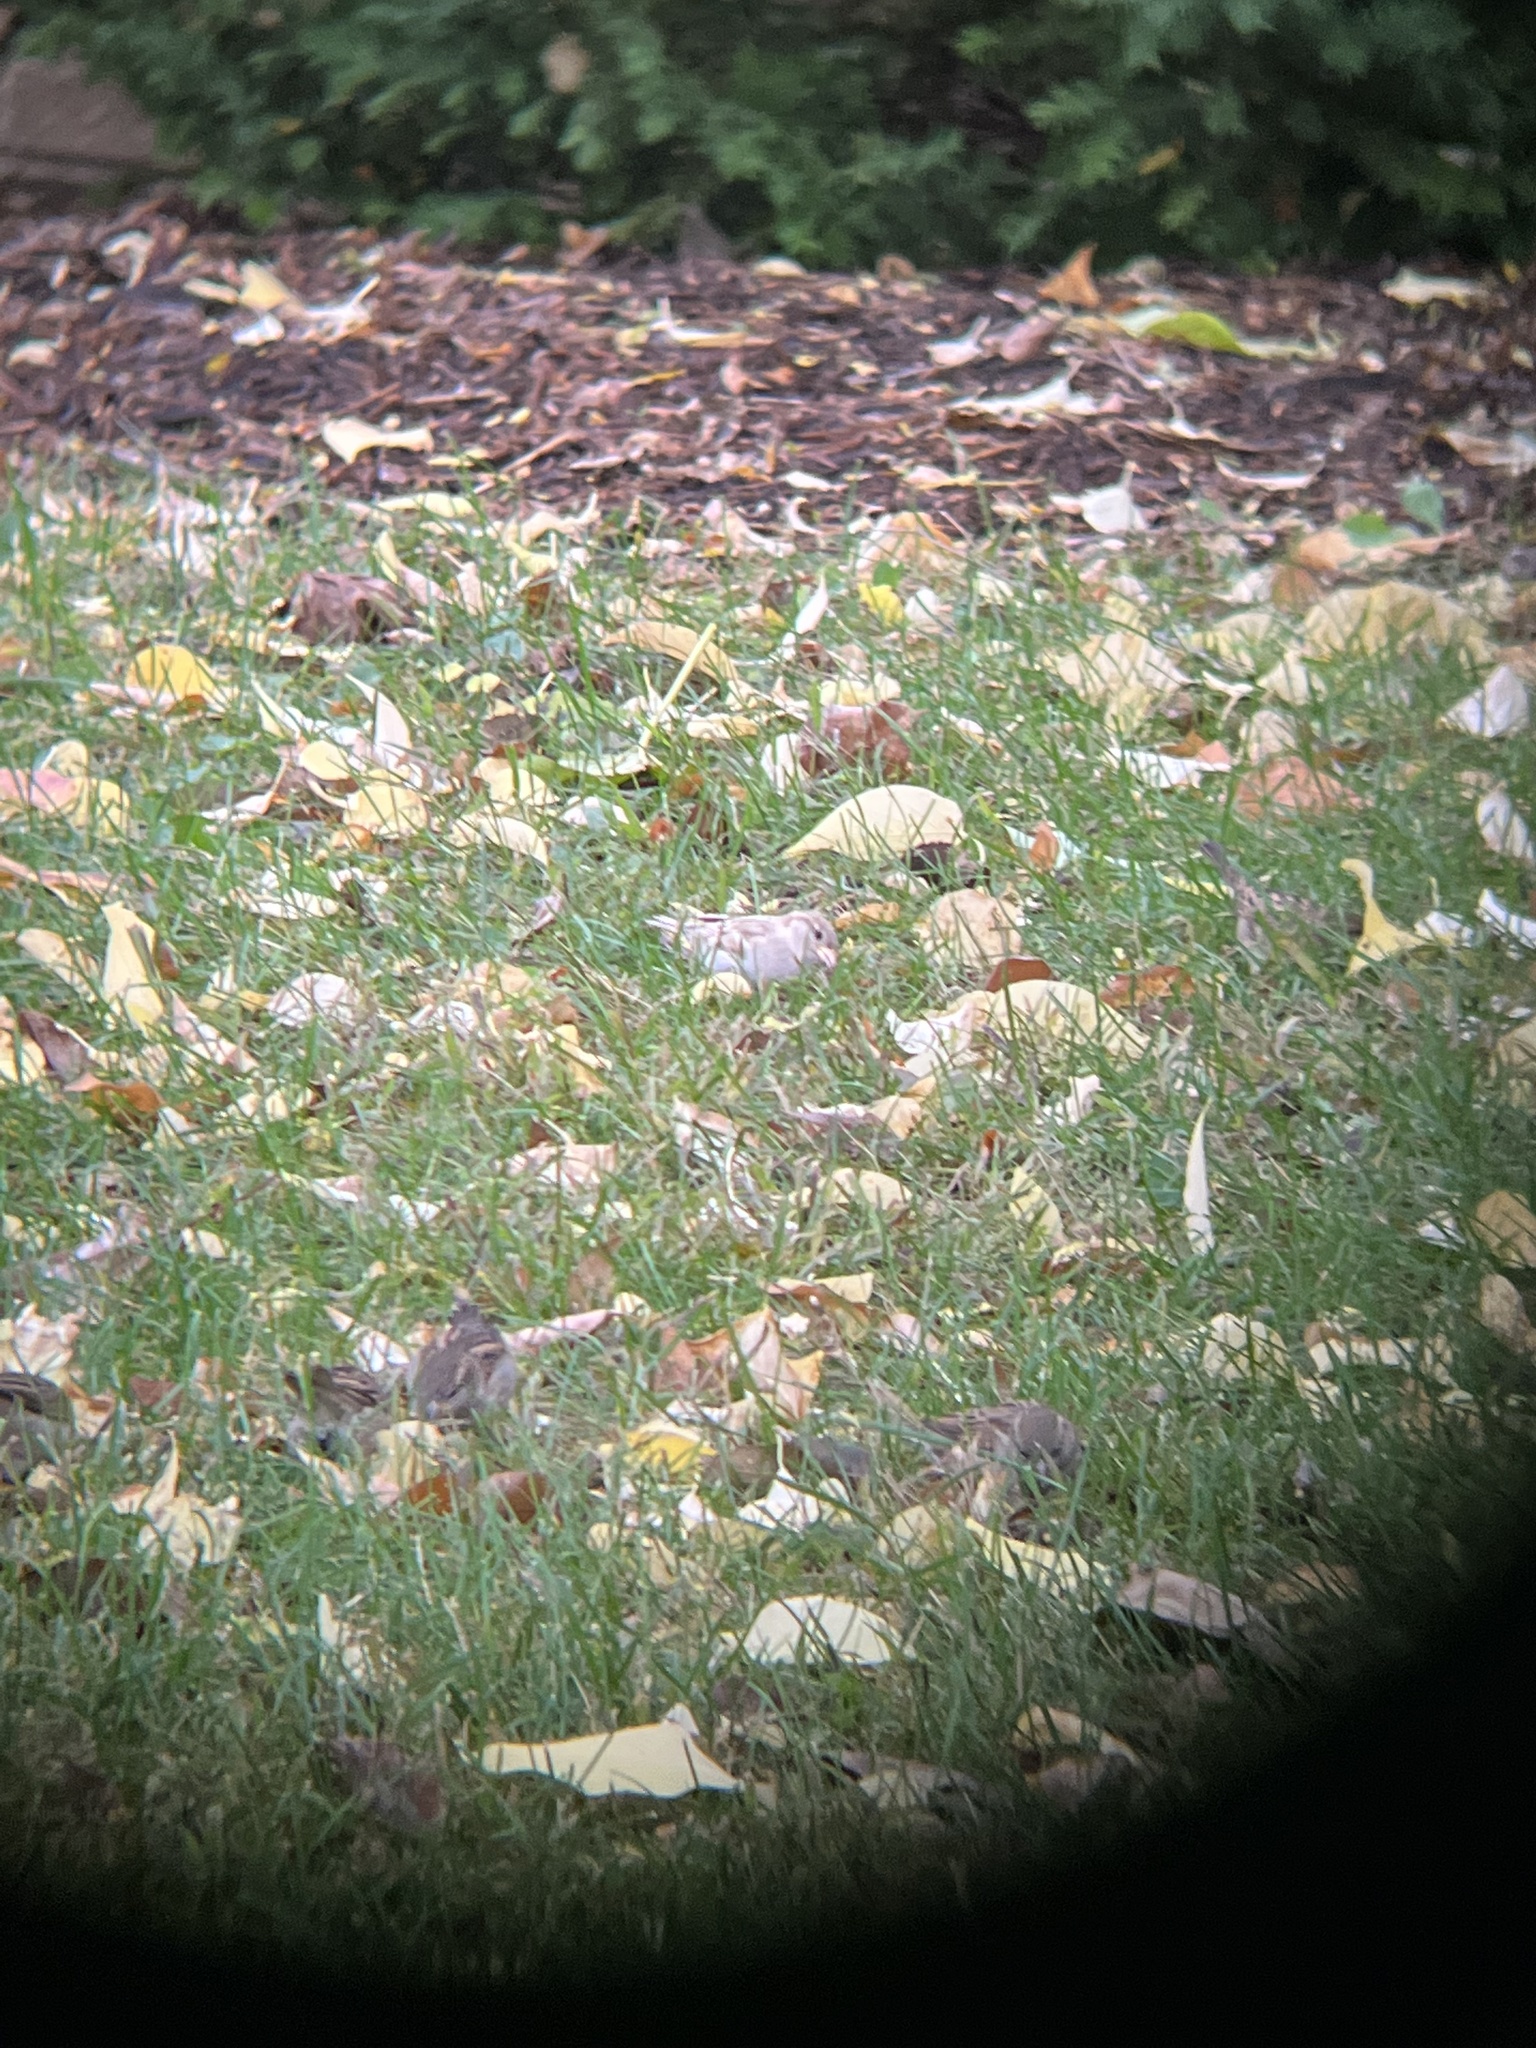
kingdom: Animalia
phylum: Chordata
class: Aves
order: Passeriformes
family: Passeridae
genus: Passer
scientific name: Passer domesticus
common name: House sparrow
